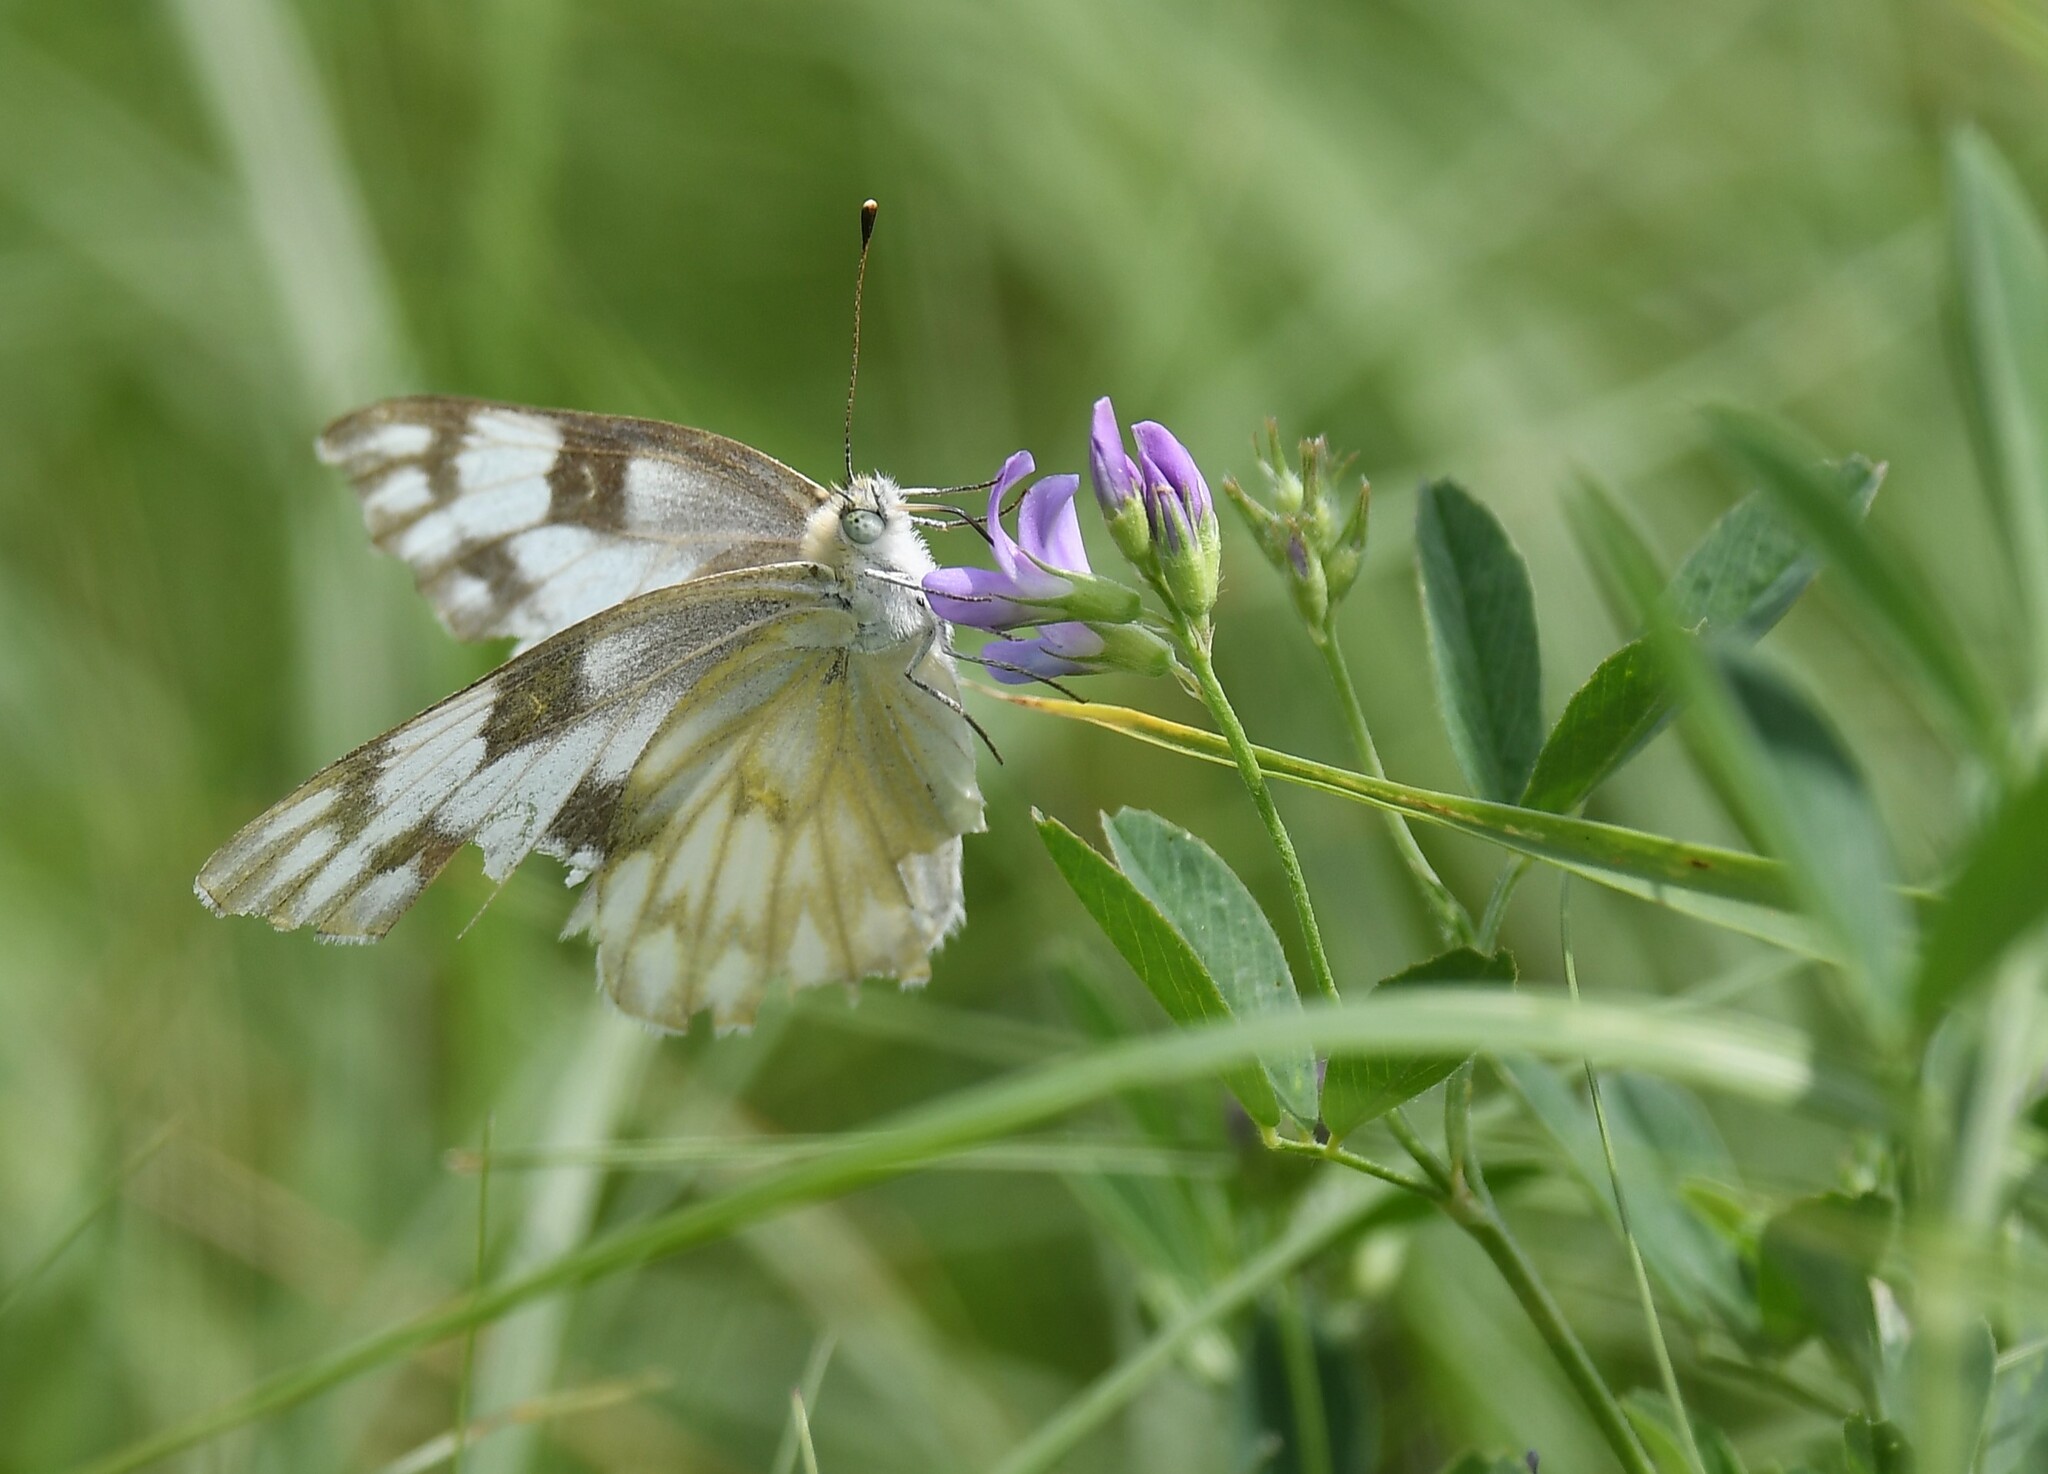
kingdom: Animalia
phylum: Arthropoda
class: Insecta
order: Lepidoptera
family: Pieridae
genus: Pontia
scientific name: Pontia protodice
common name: Checkered white
